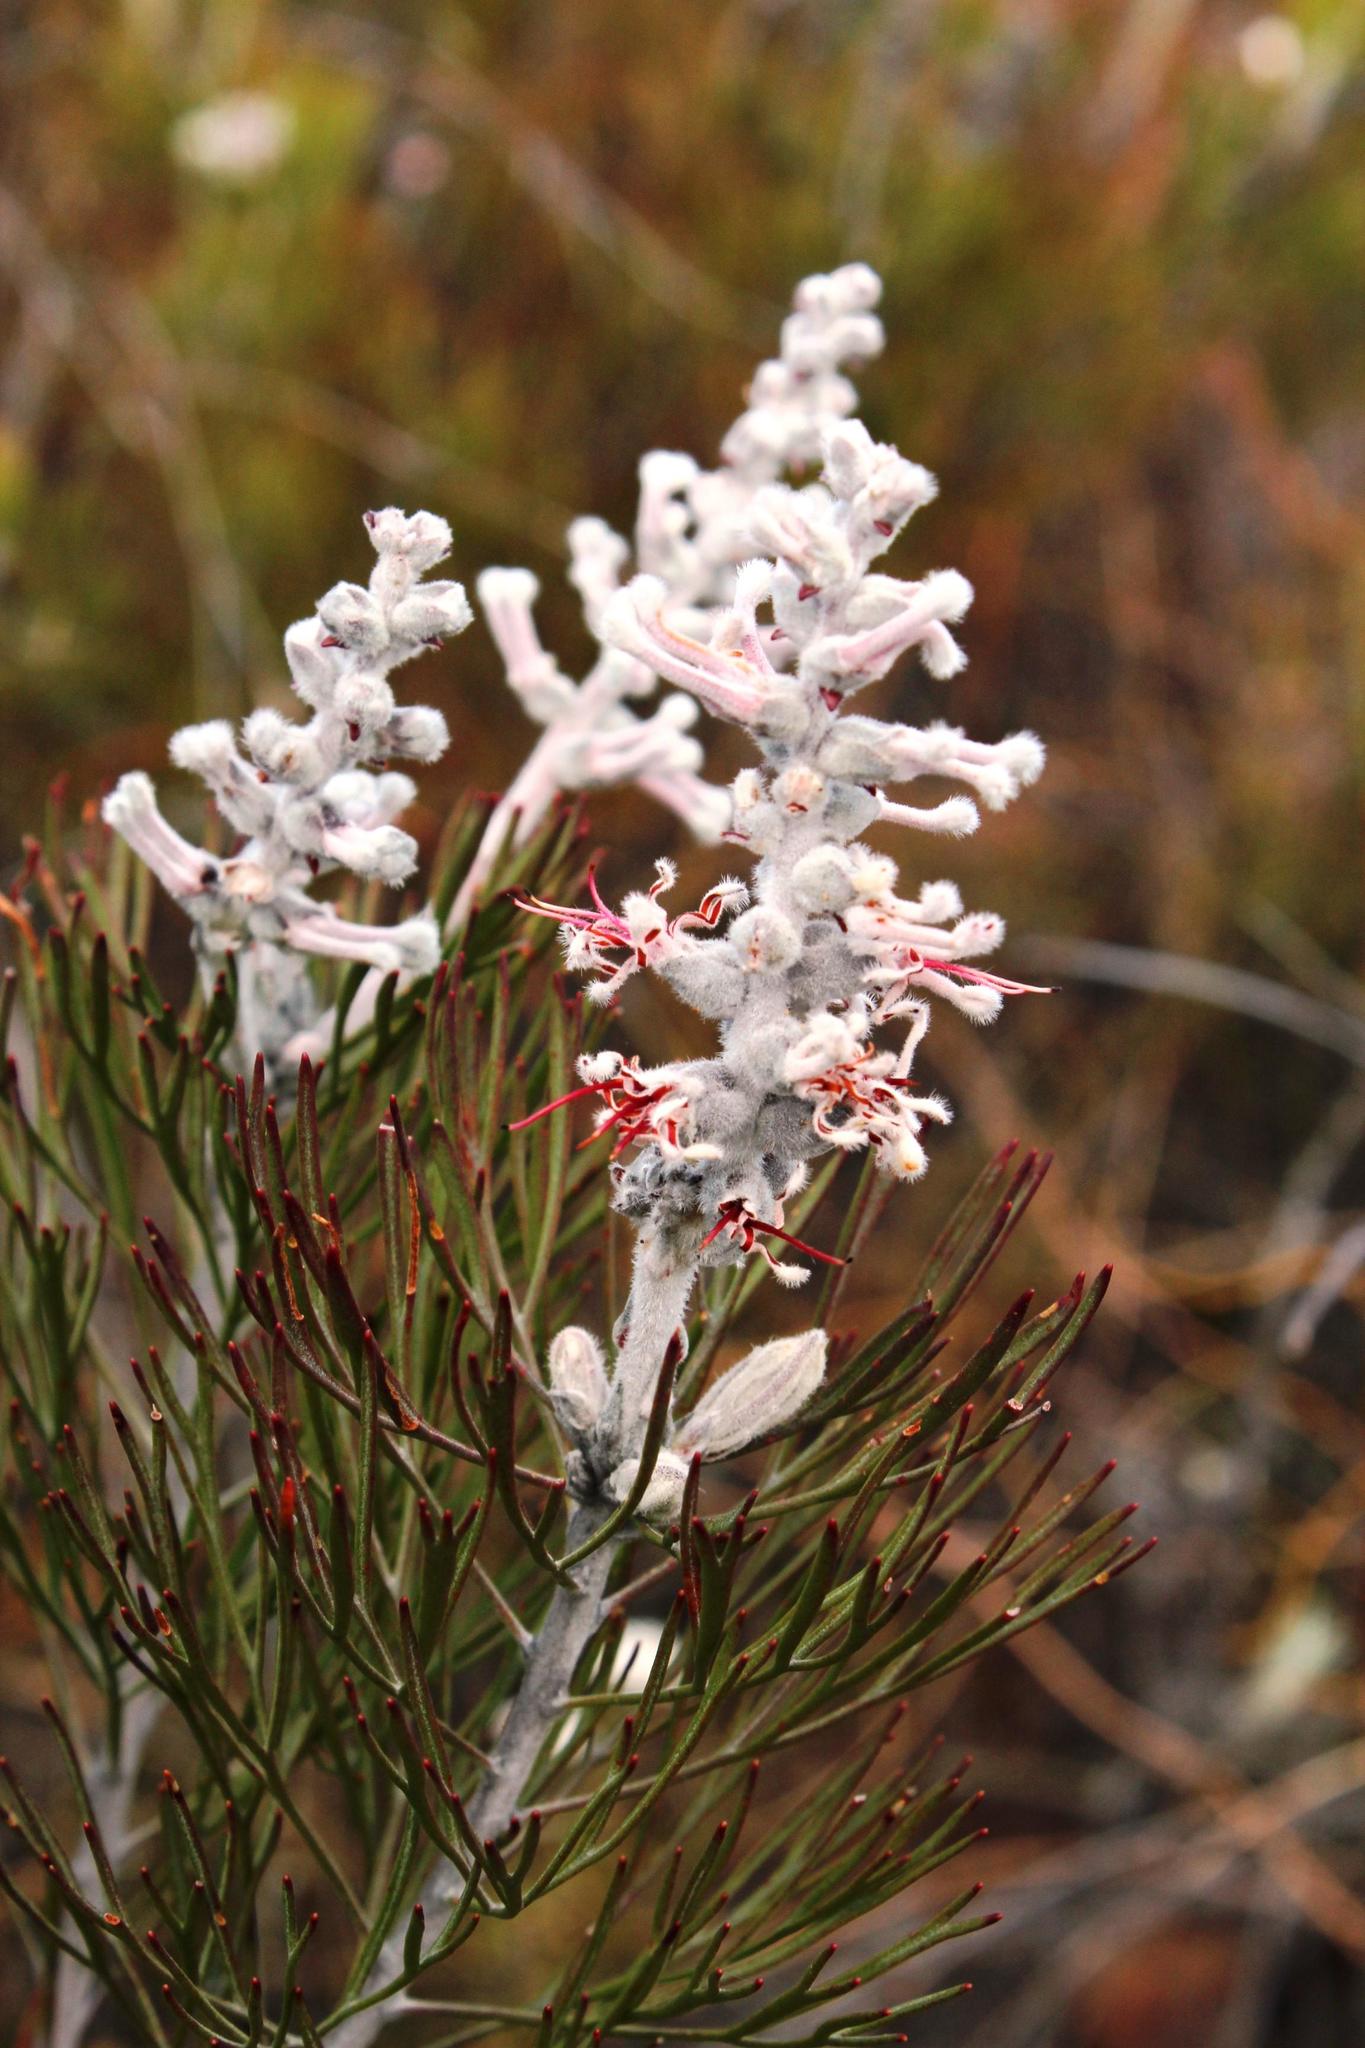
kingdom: Plantae
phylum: Tracheophyta
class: Magnoliopsida
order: Proteales
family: Proteaceae
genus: Paranomus
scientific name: Paranomus dispersus
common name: Long-head sceptre
